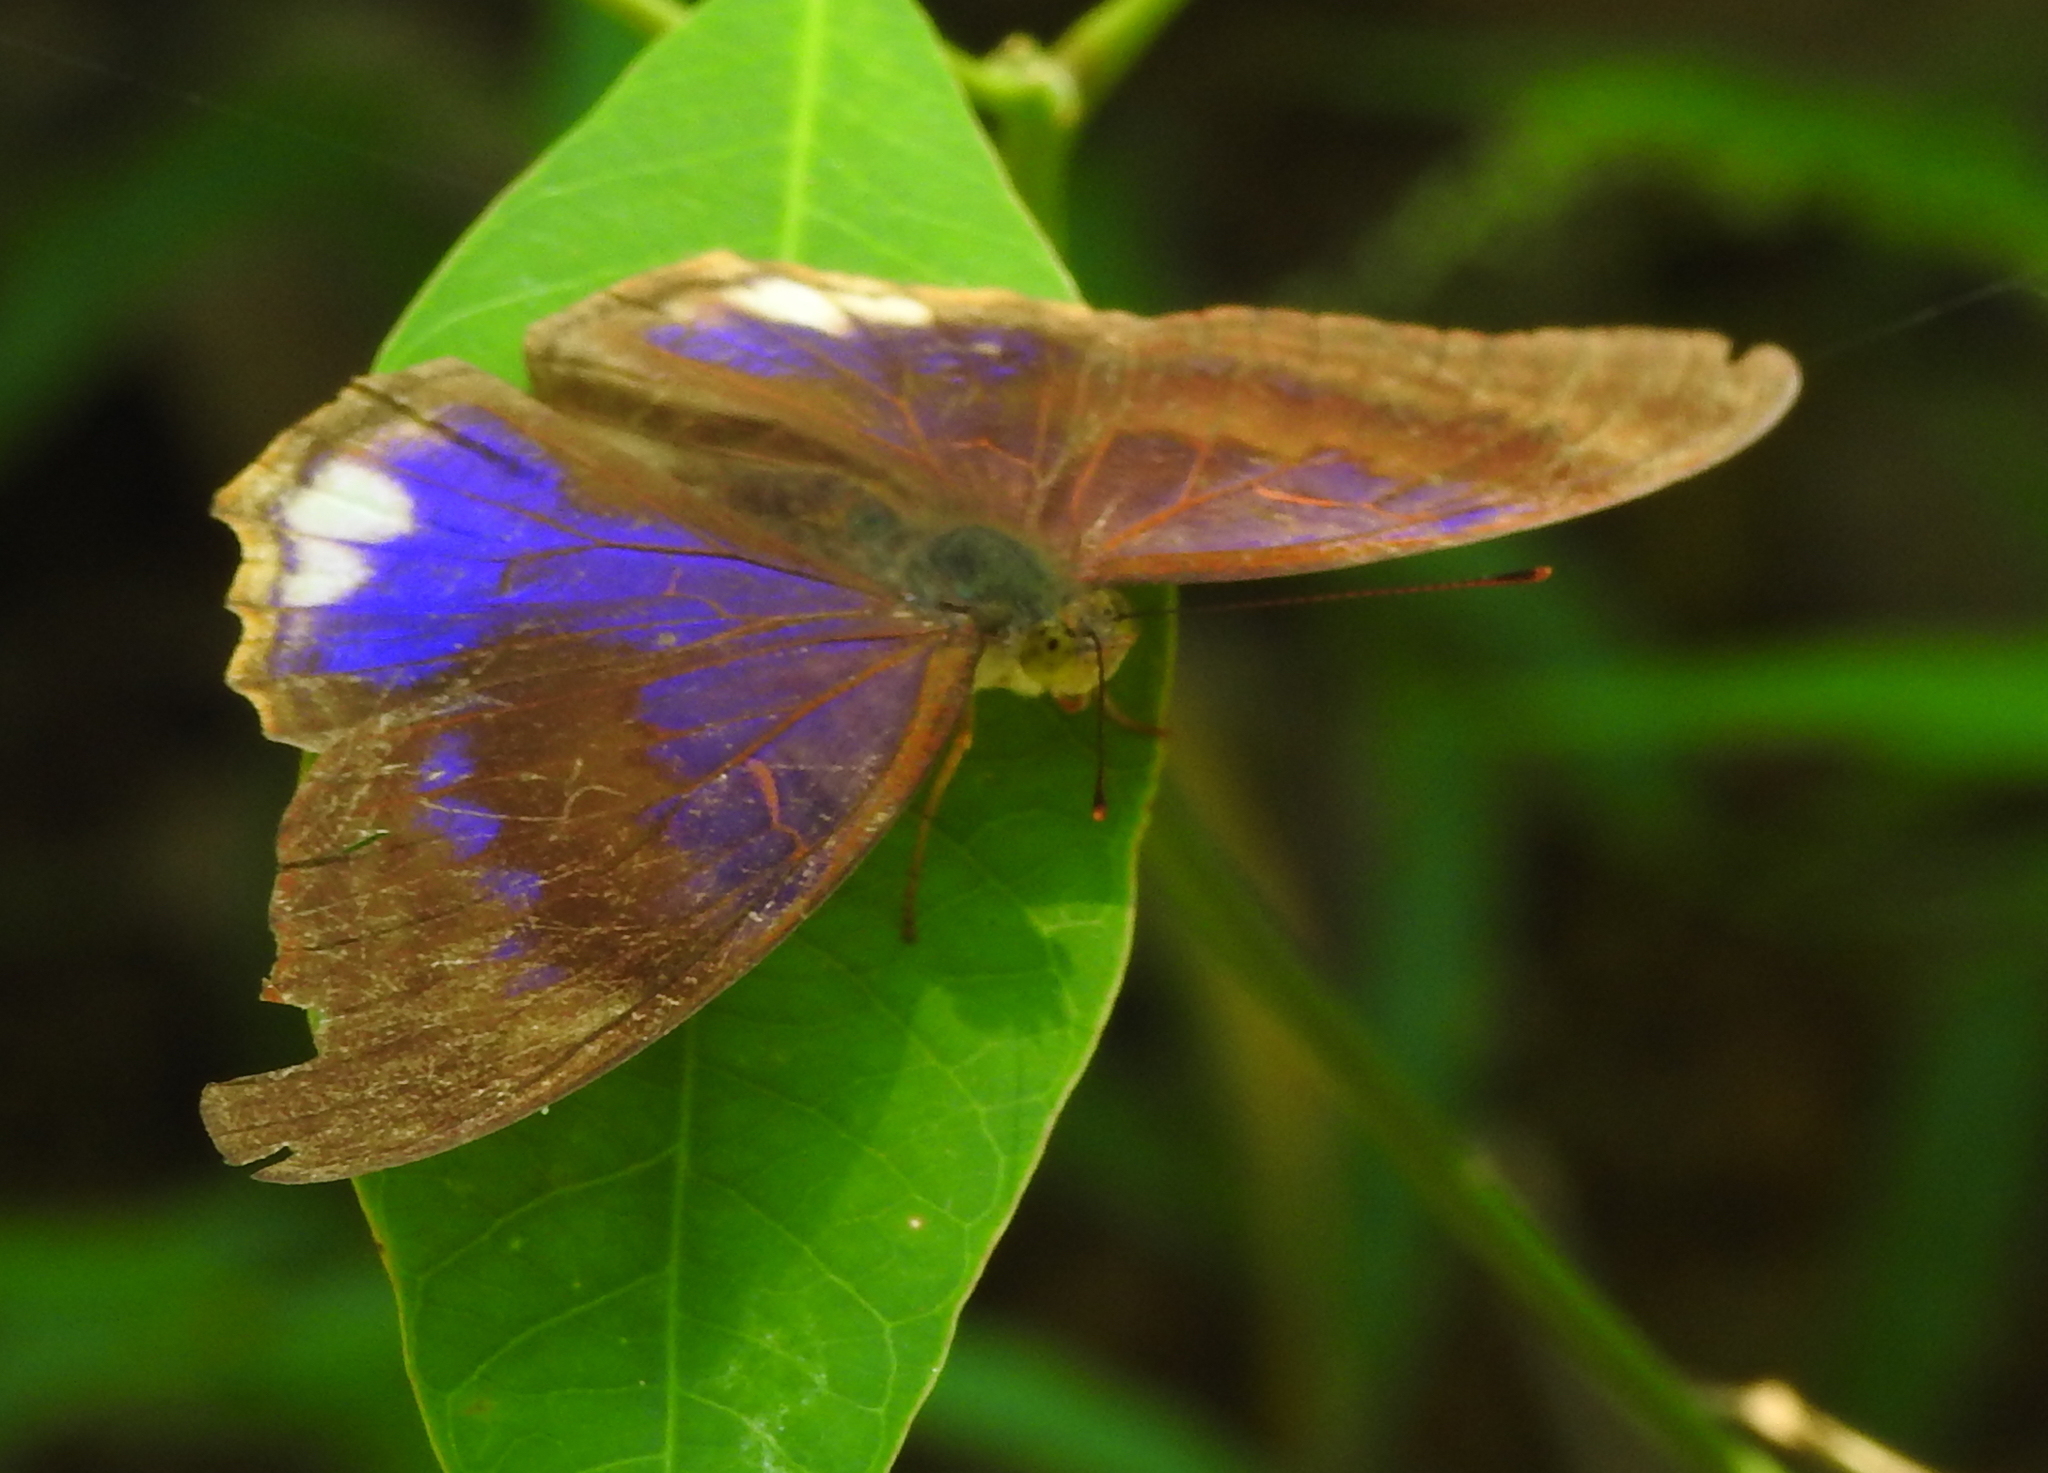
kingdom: Animalia
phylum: Arthropoda
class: Insecta
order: Lepidoptera
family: Nymphalidae
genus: Terinos
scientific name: Terinos terpander
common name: Royal assyrian
